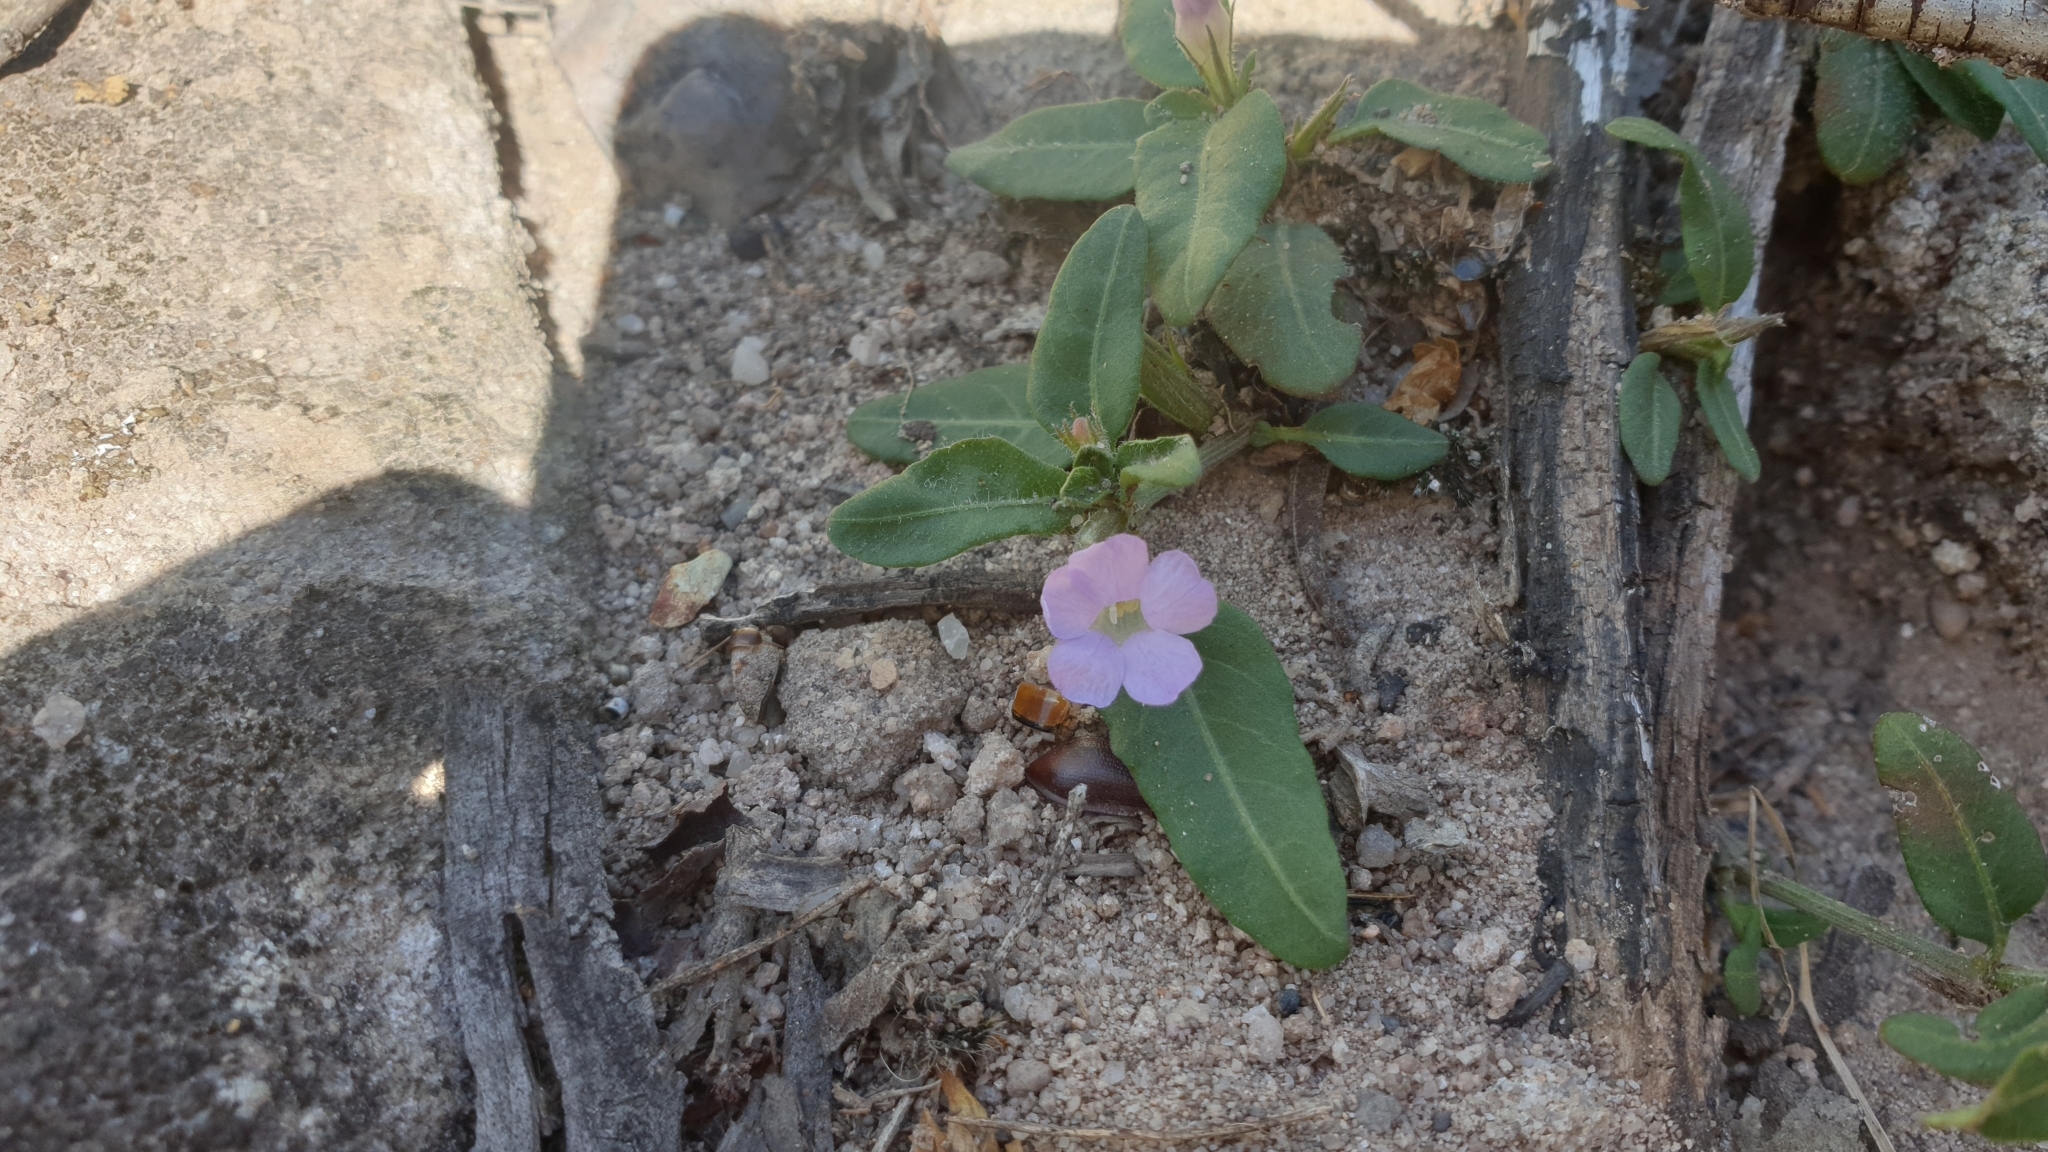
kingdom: Plantae
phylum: Tracheophyta
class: Magnoliopsida
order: Lamiales
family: Acanthaceae
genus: Brunoniella
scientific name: Brunoniella australis
